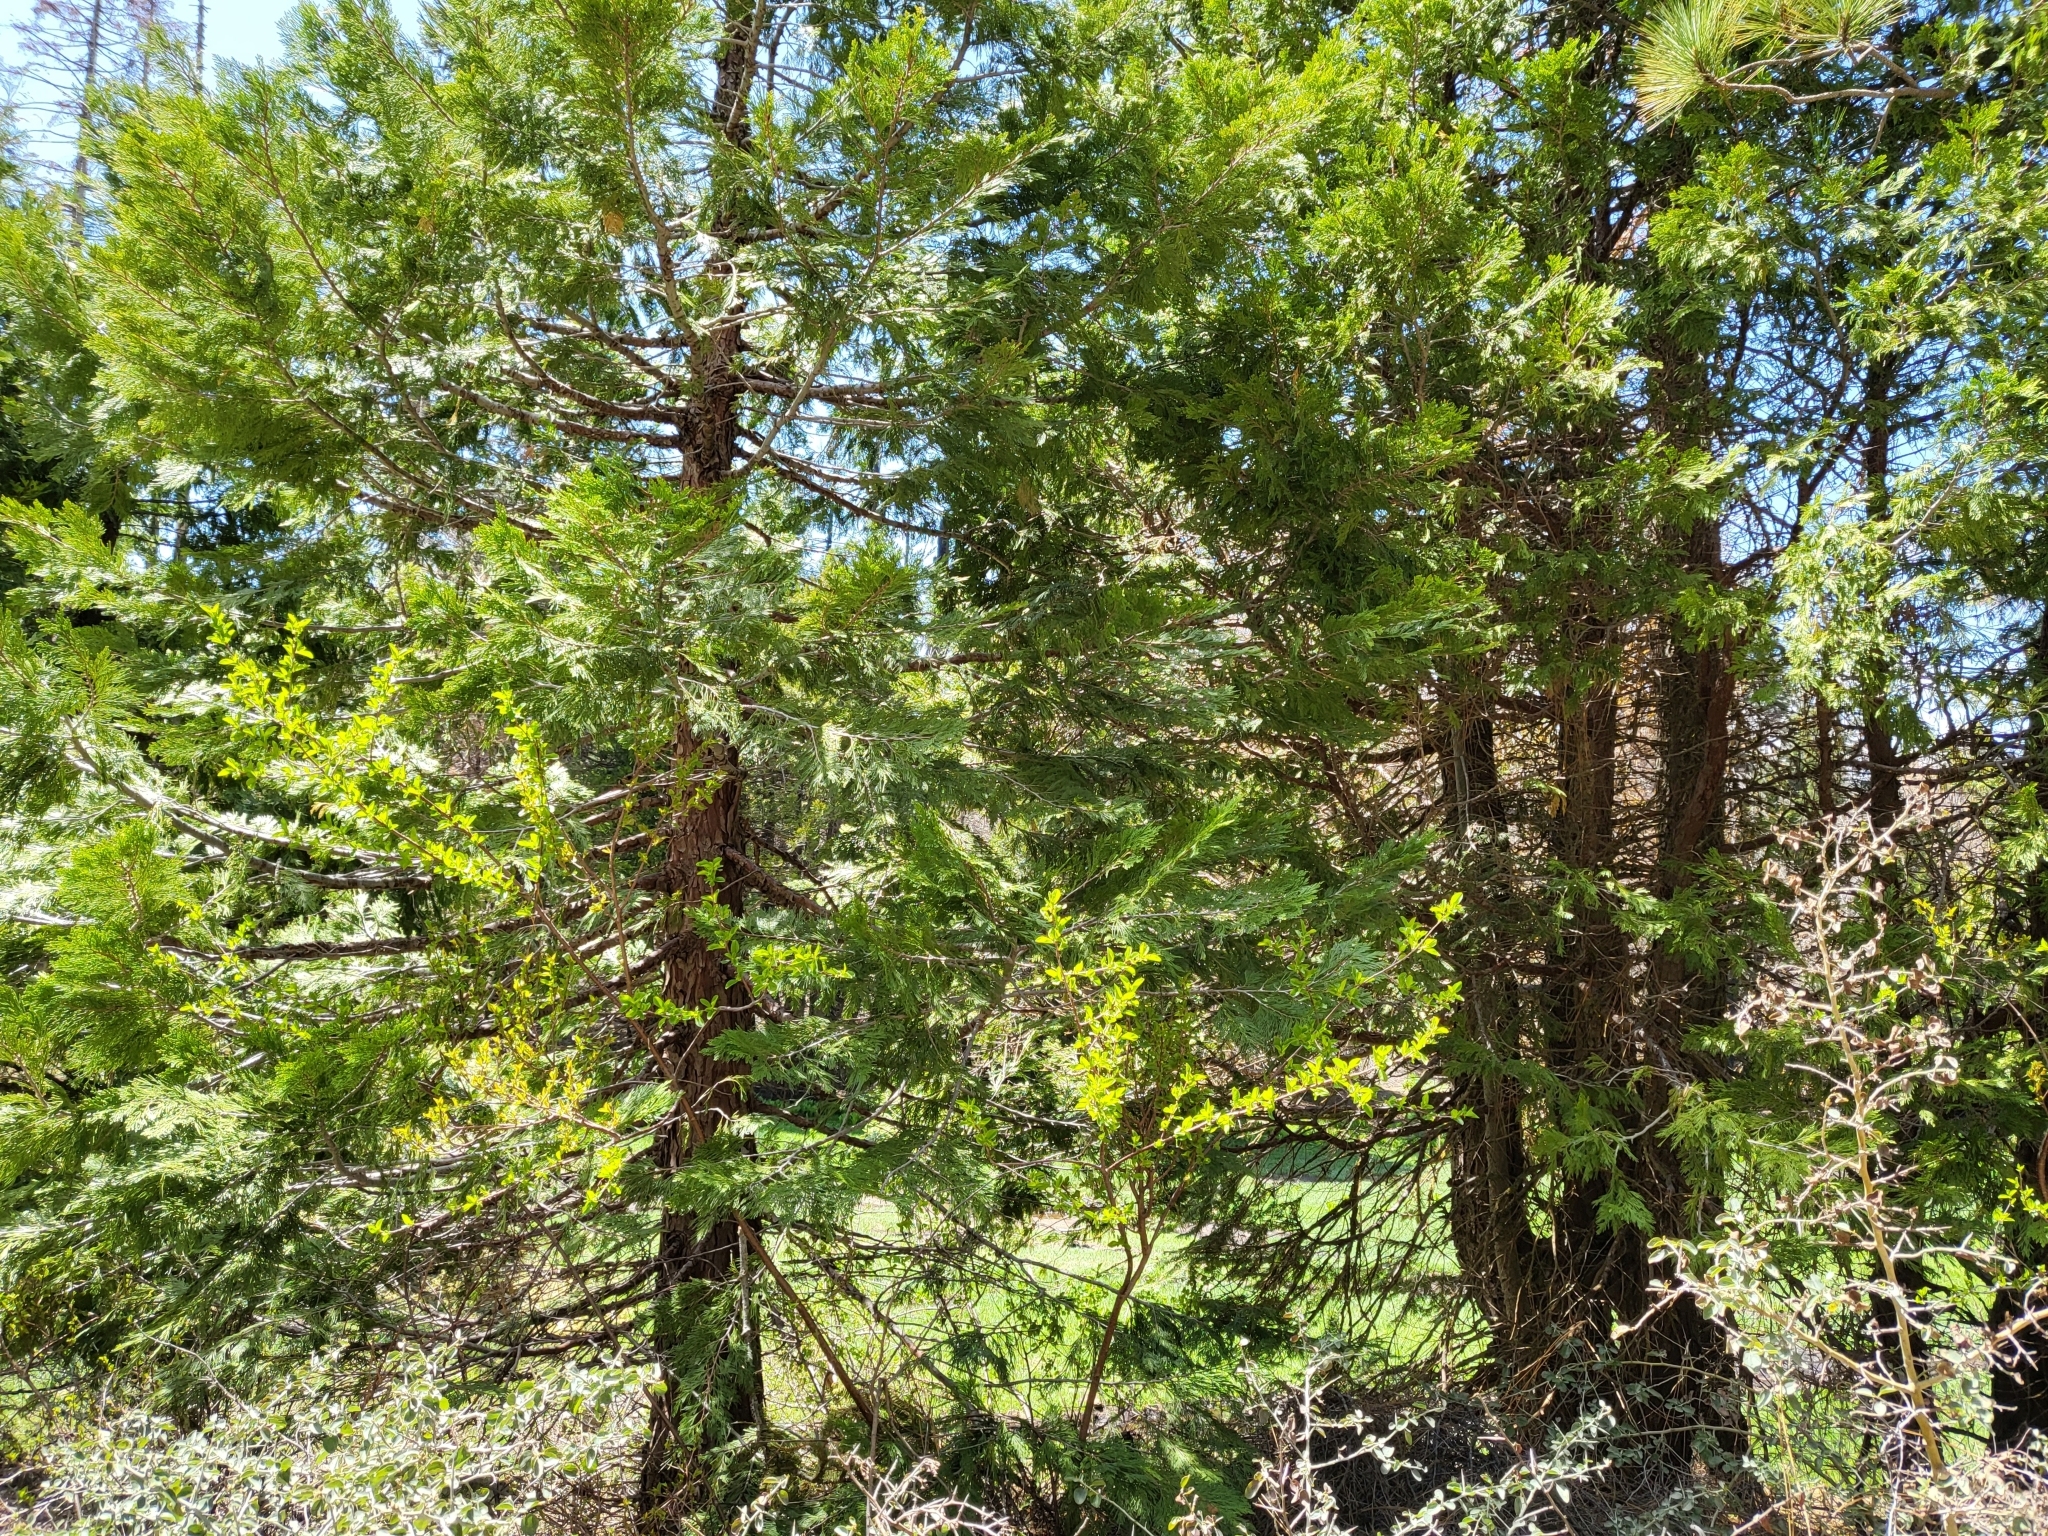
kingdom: Plantae
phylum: Tracheophyta
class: Pinopsida
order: Pinales
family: Cupressaceae
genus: Calocedrus
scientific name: Calocedrus decurrens
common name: Californian incense-cedar
